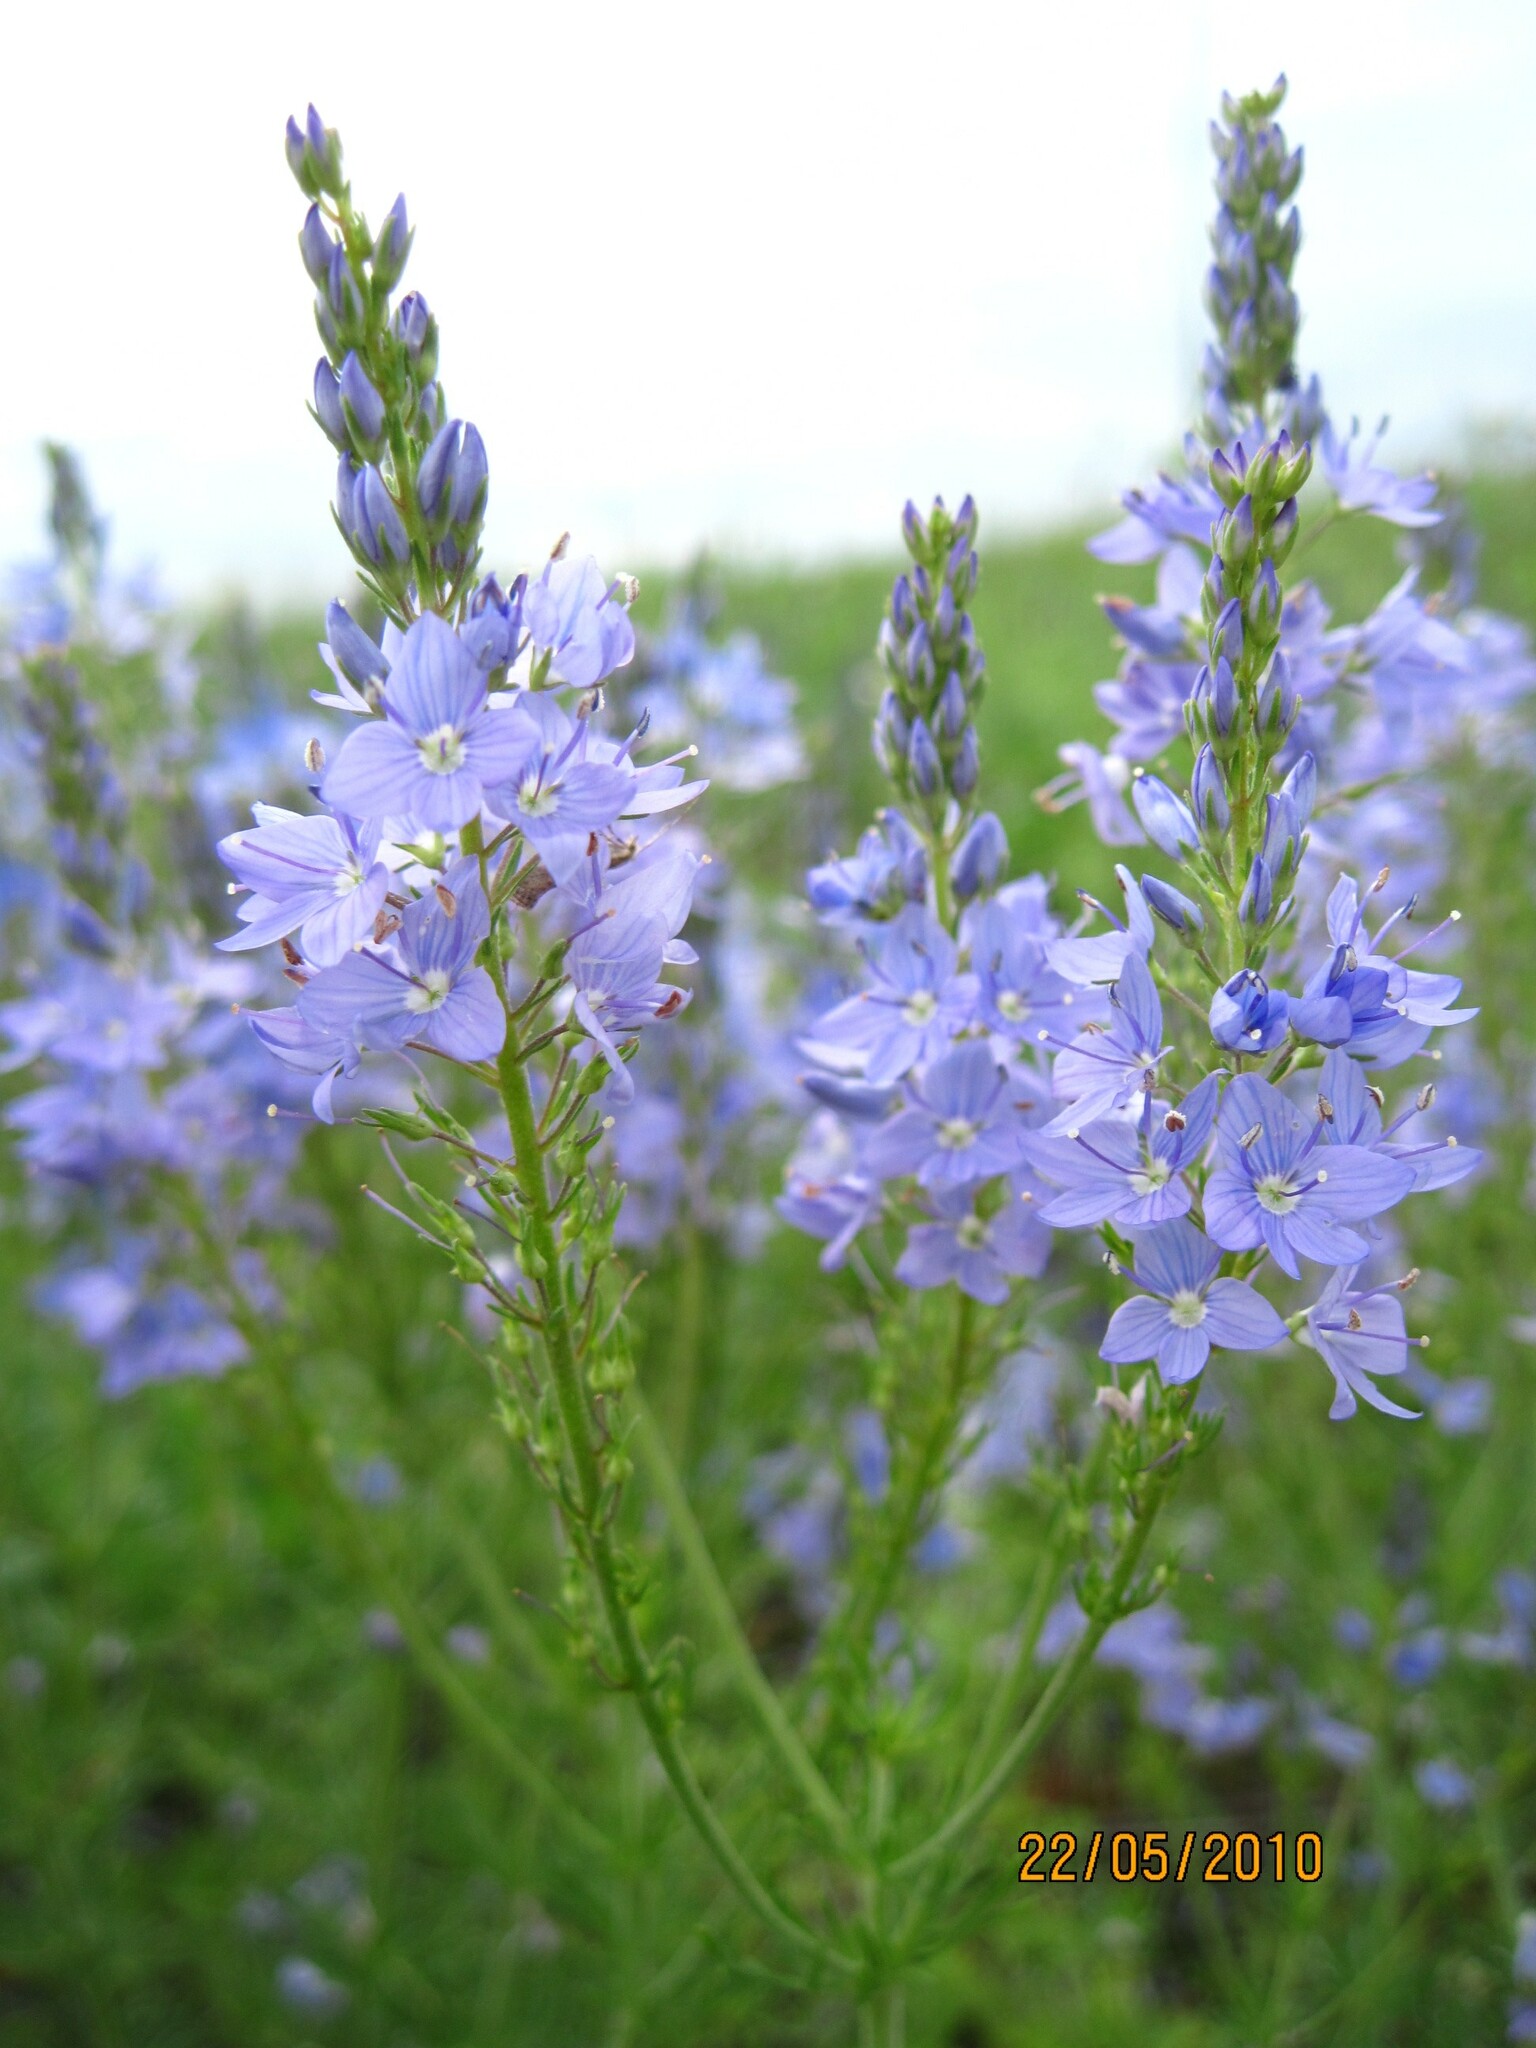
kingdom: Plantae
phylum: Tracheophyta
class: Magnoliopsida
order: Lamiales
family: Plantaginaceae
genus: Veronica
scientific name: Veronica teucrium
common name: Large speedwell
